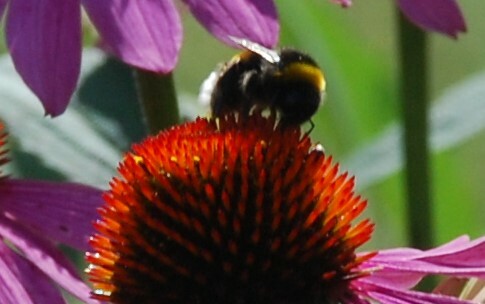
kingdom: Animalia
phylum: Arthropoda
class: Insecta
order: Hymenoptera
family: Apidae
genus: Bombus
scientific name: Bombus
